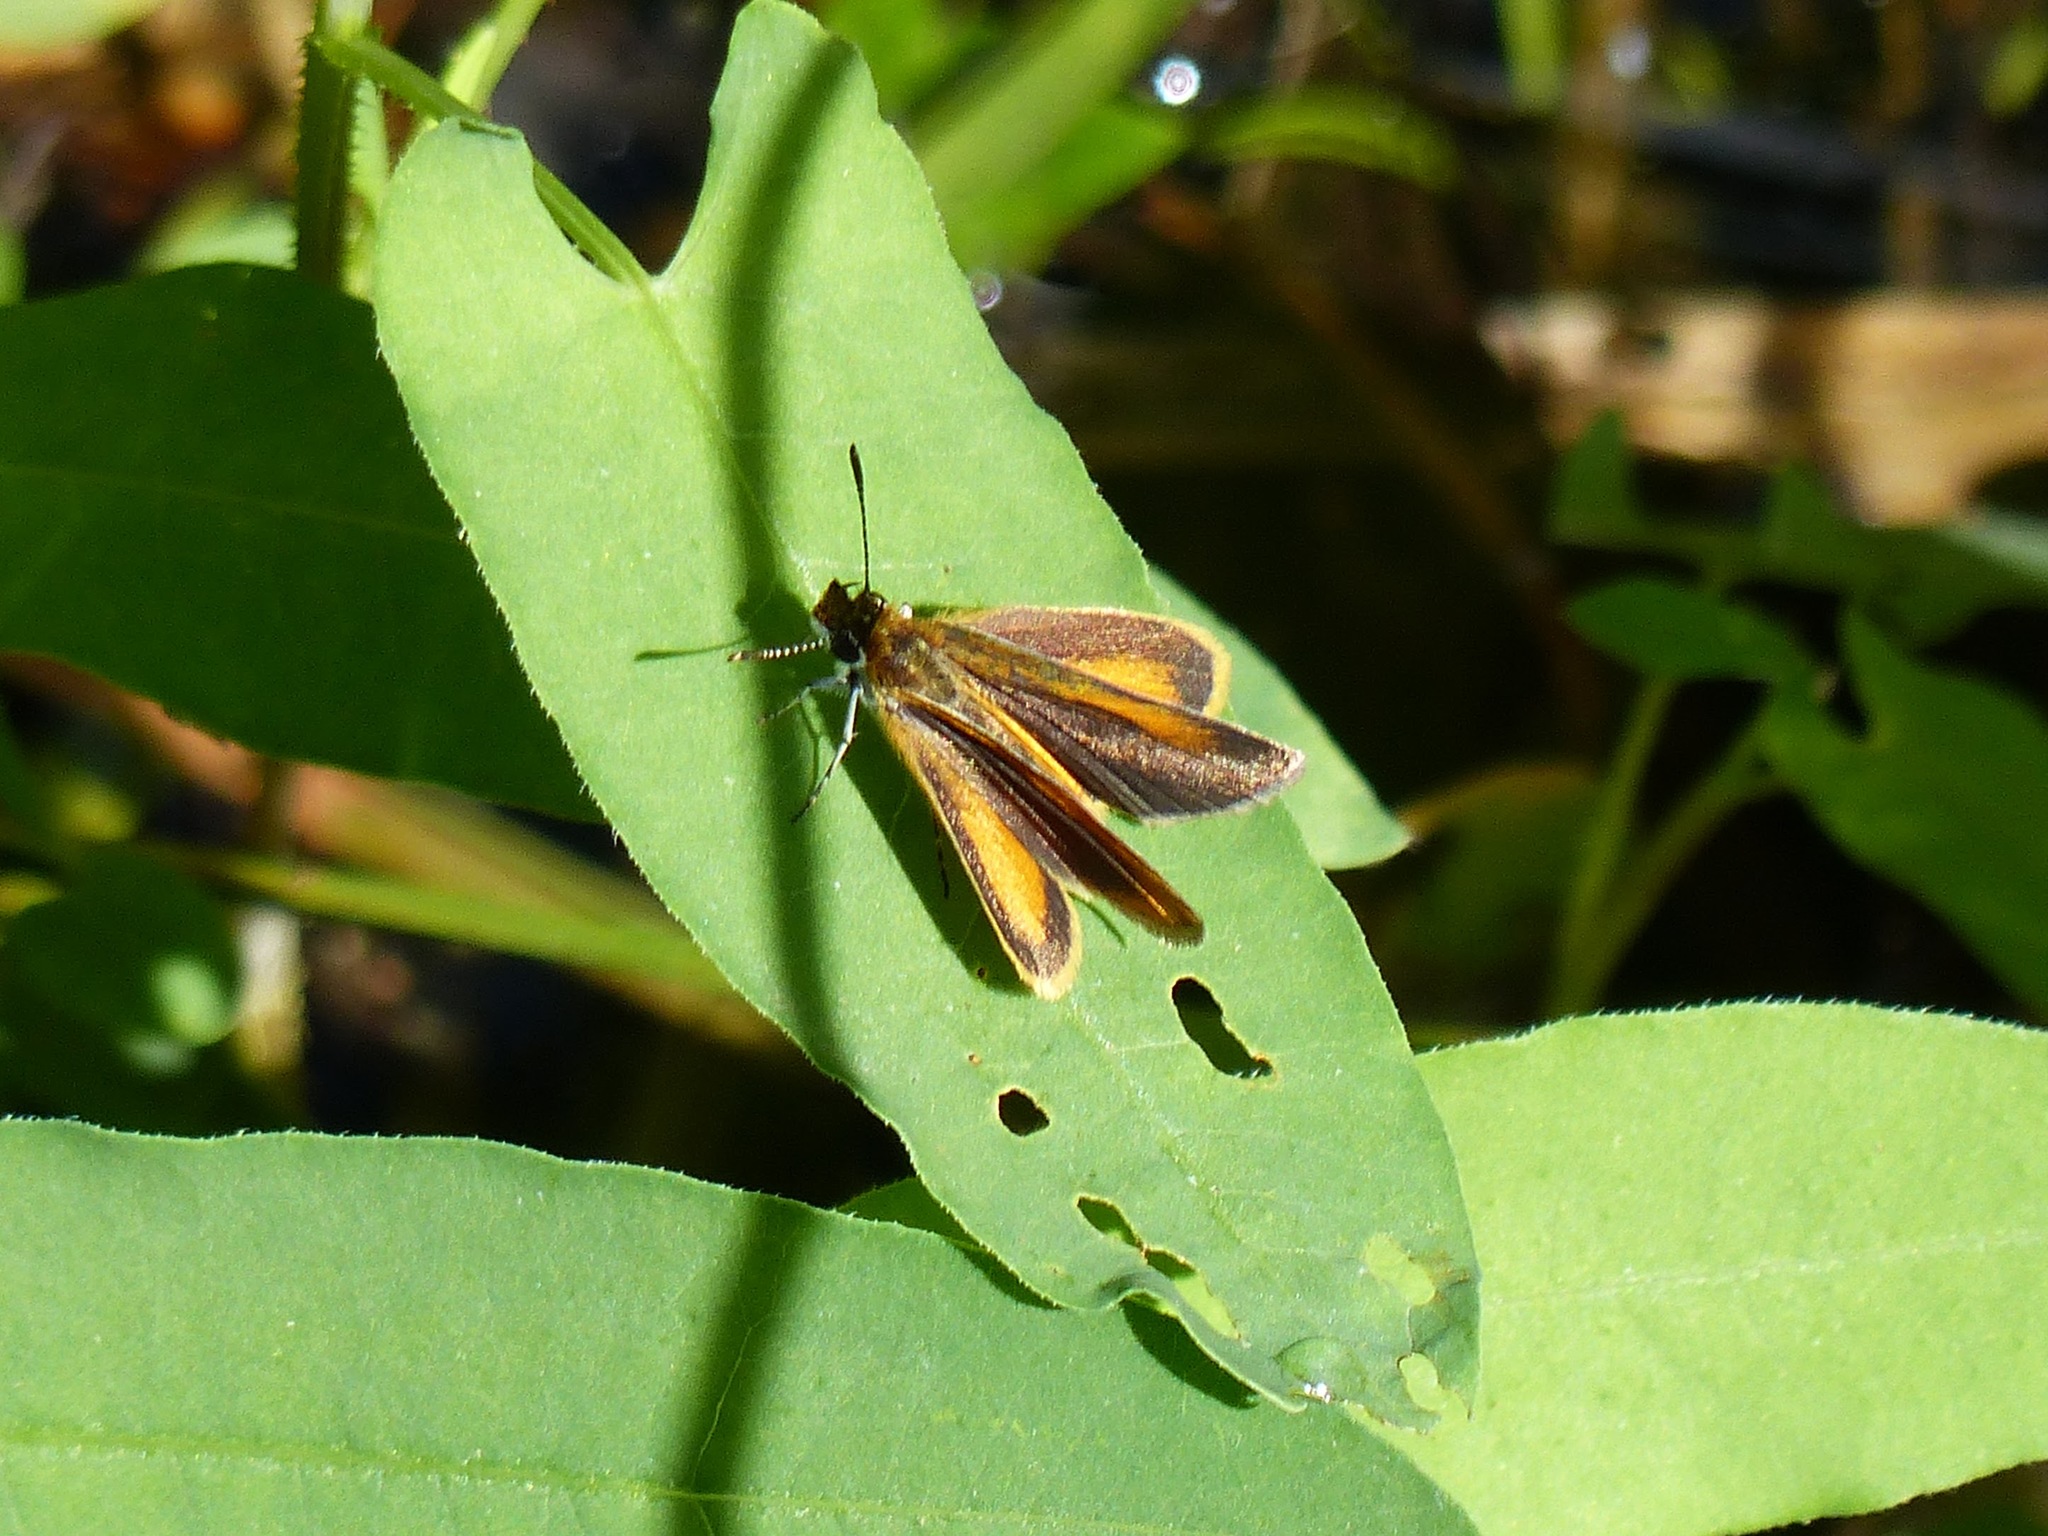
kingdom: Animalia
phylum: Arthropoda
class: Insecta
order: Lepidoptera
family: Hesperiidae
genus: Ancyloxypha
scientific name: Ancyloxypha numitor
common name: Least skipper
